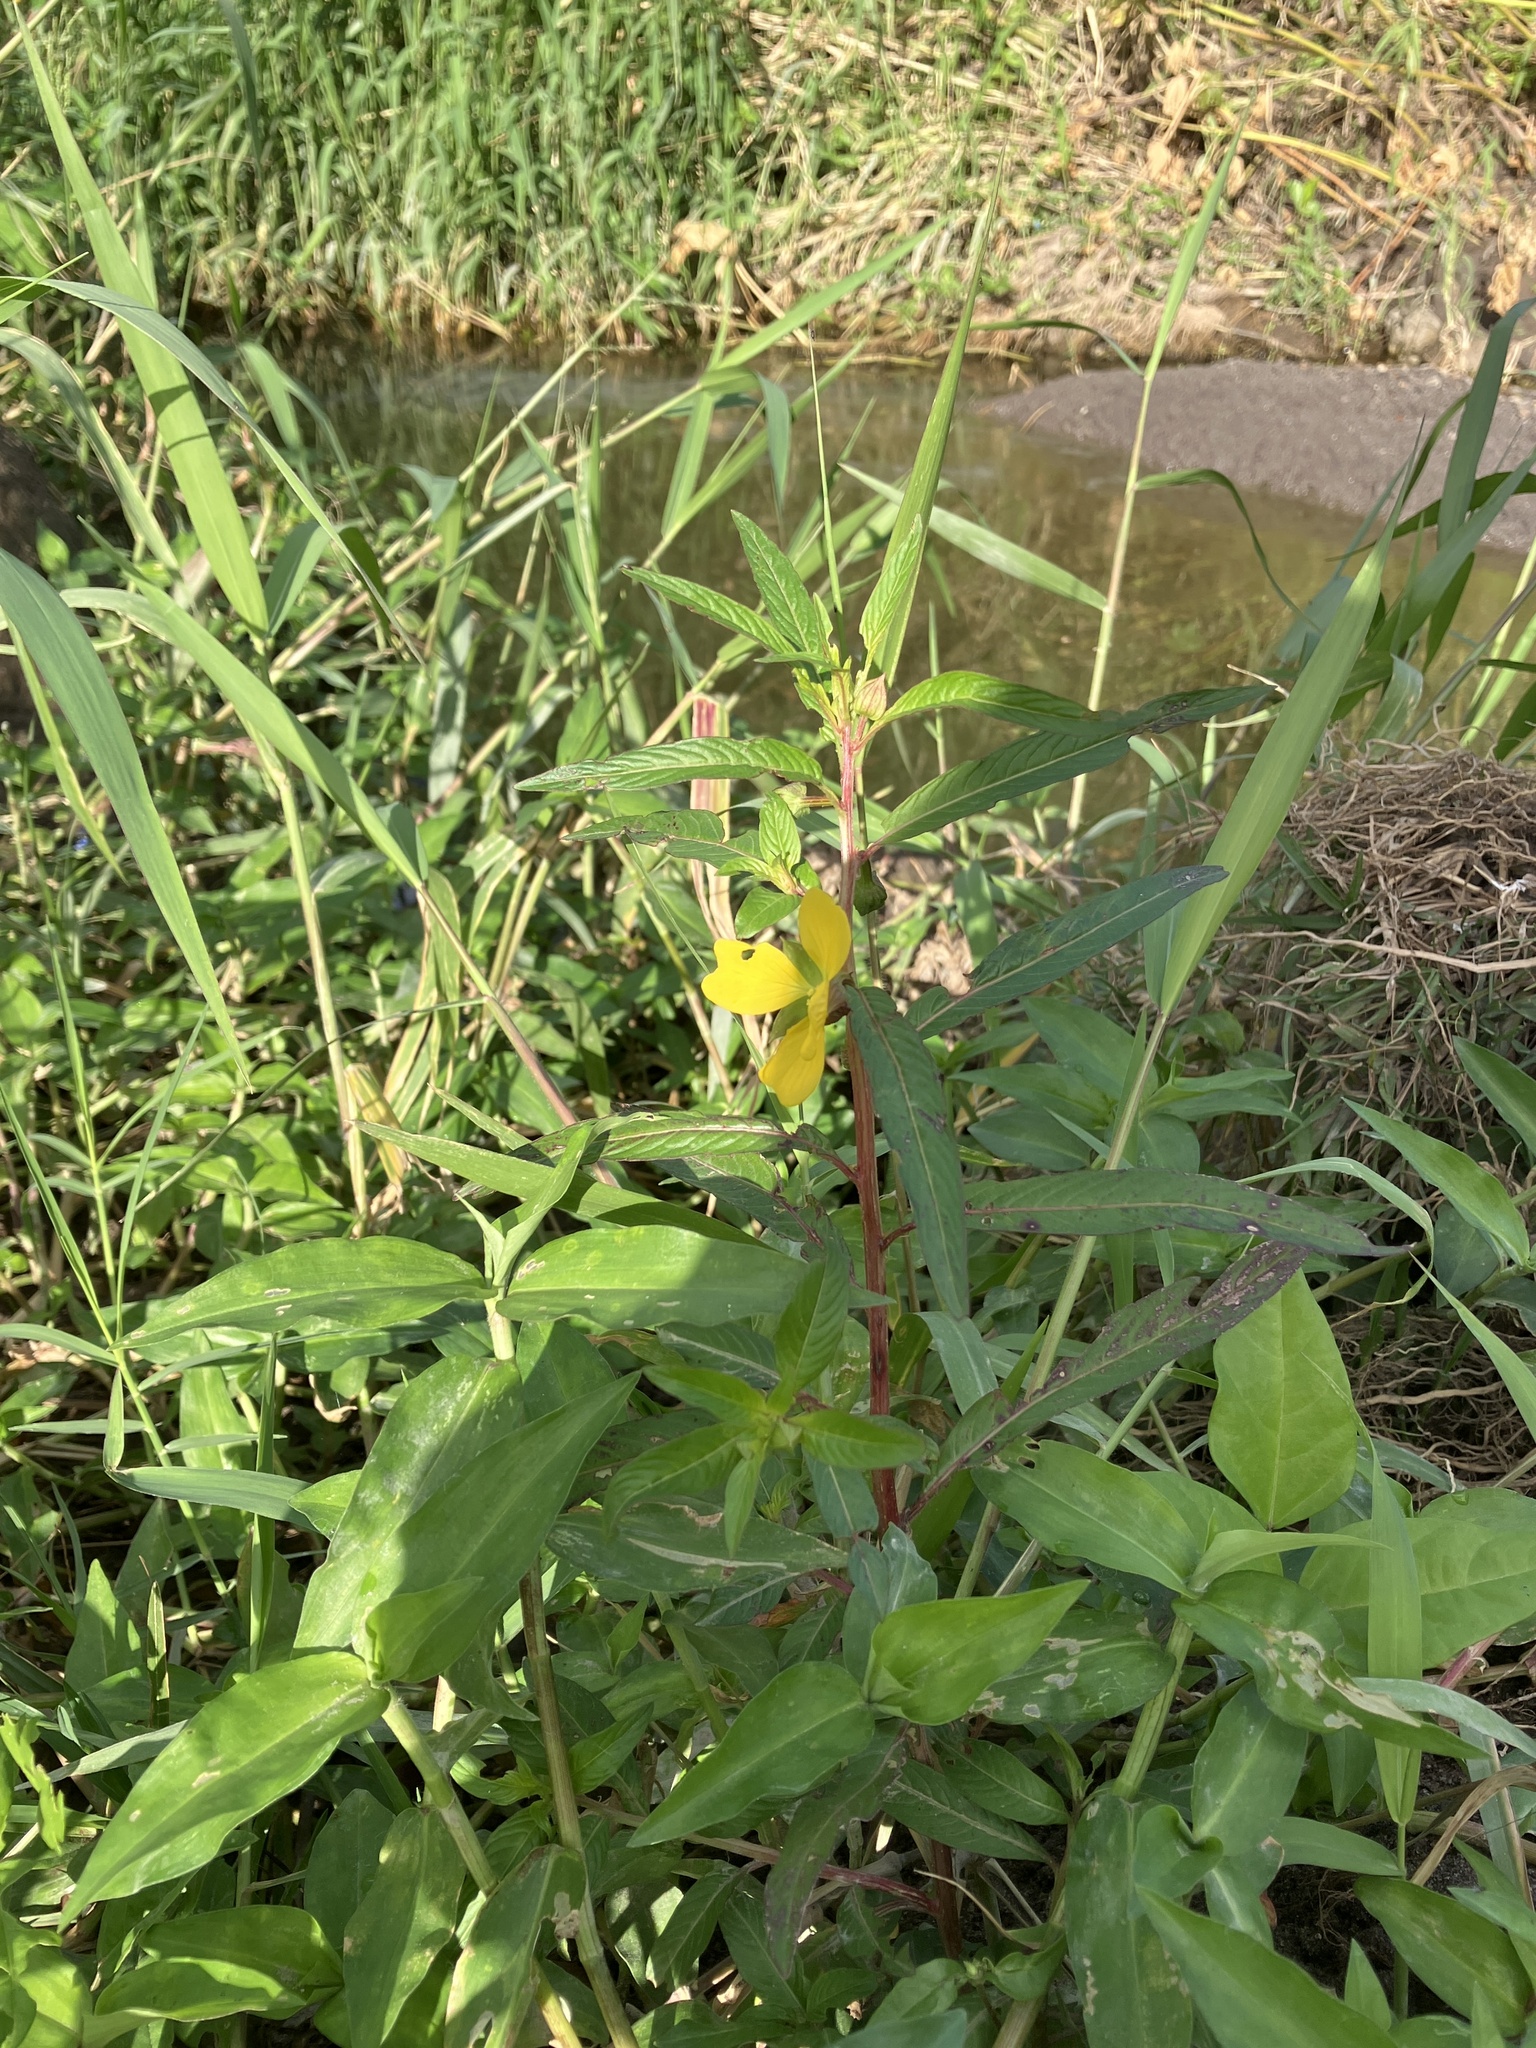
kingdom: Plantae
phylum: Tracheophyta
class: Magnoliopsida
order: Myrtales
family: Onagraceae
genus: Ludwigia
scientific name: Ludwigia octovalvis
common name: Water-primrose
